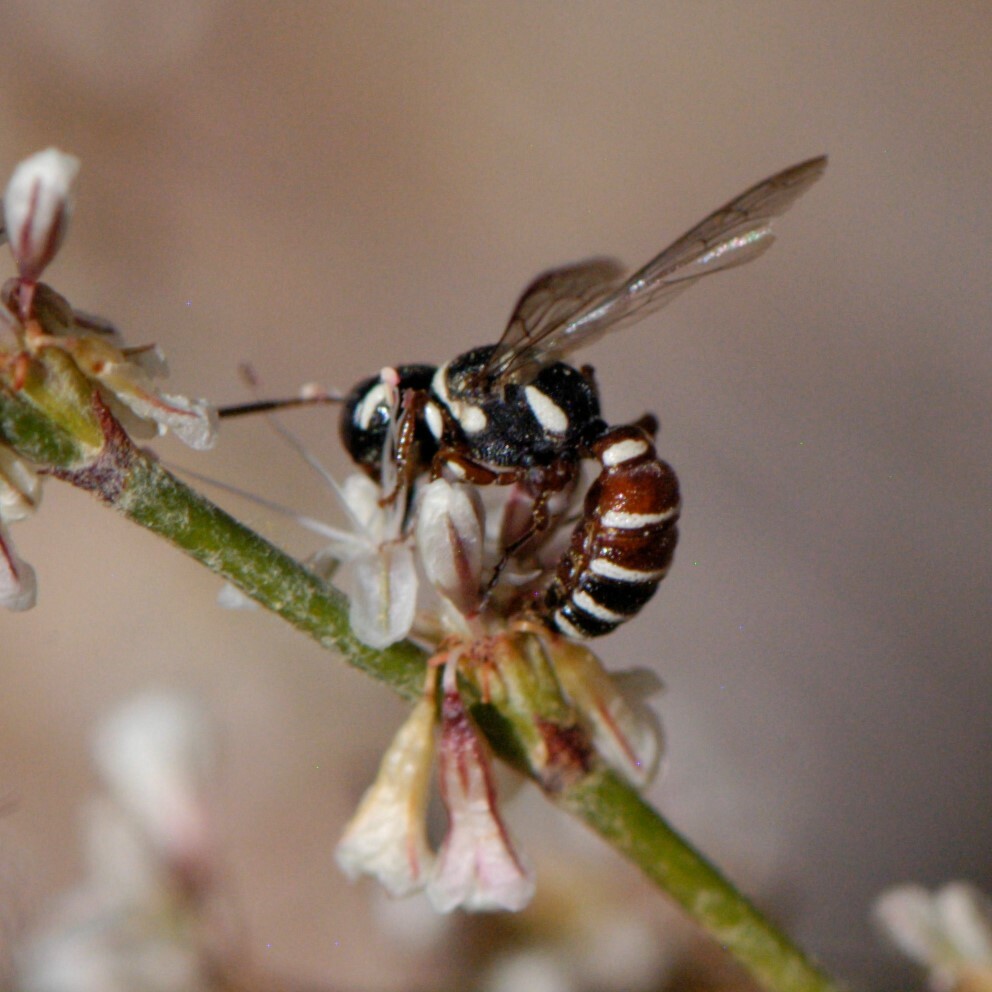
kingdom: Animalia
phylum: Arthropoda
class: Insecta
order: Hymenoptera
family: Crabronidae
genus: Eucerceris
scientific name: Eucerceris tricolor
